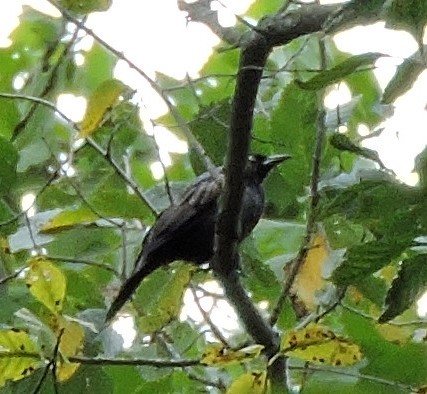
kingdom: Animalia
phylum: Chordata
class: Aves
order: Passeriformes
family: Icteridae
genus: Quiscalus
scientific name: Quiscalus quiscula
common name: Common grackle
